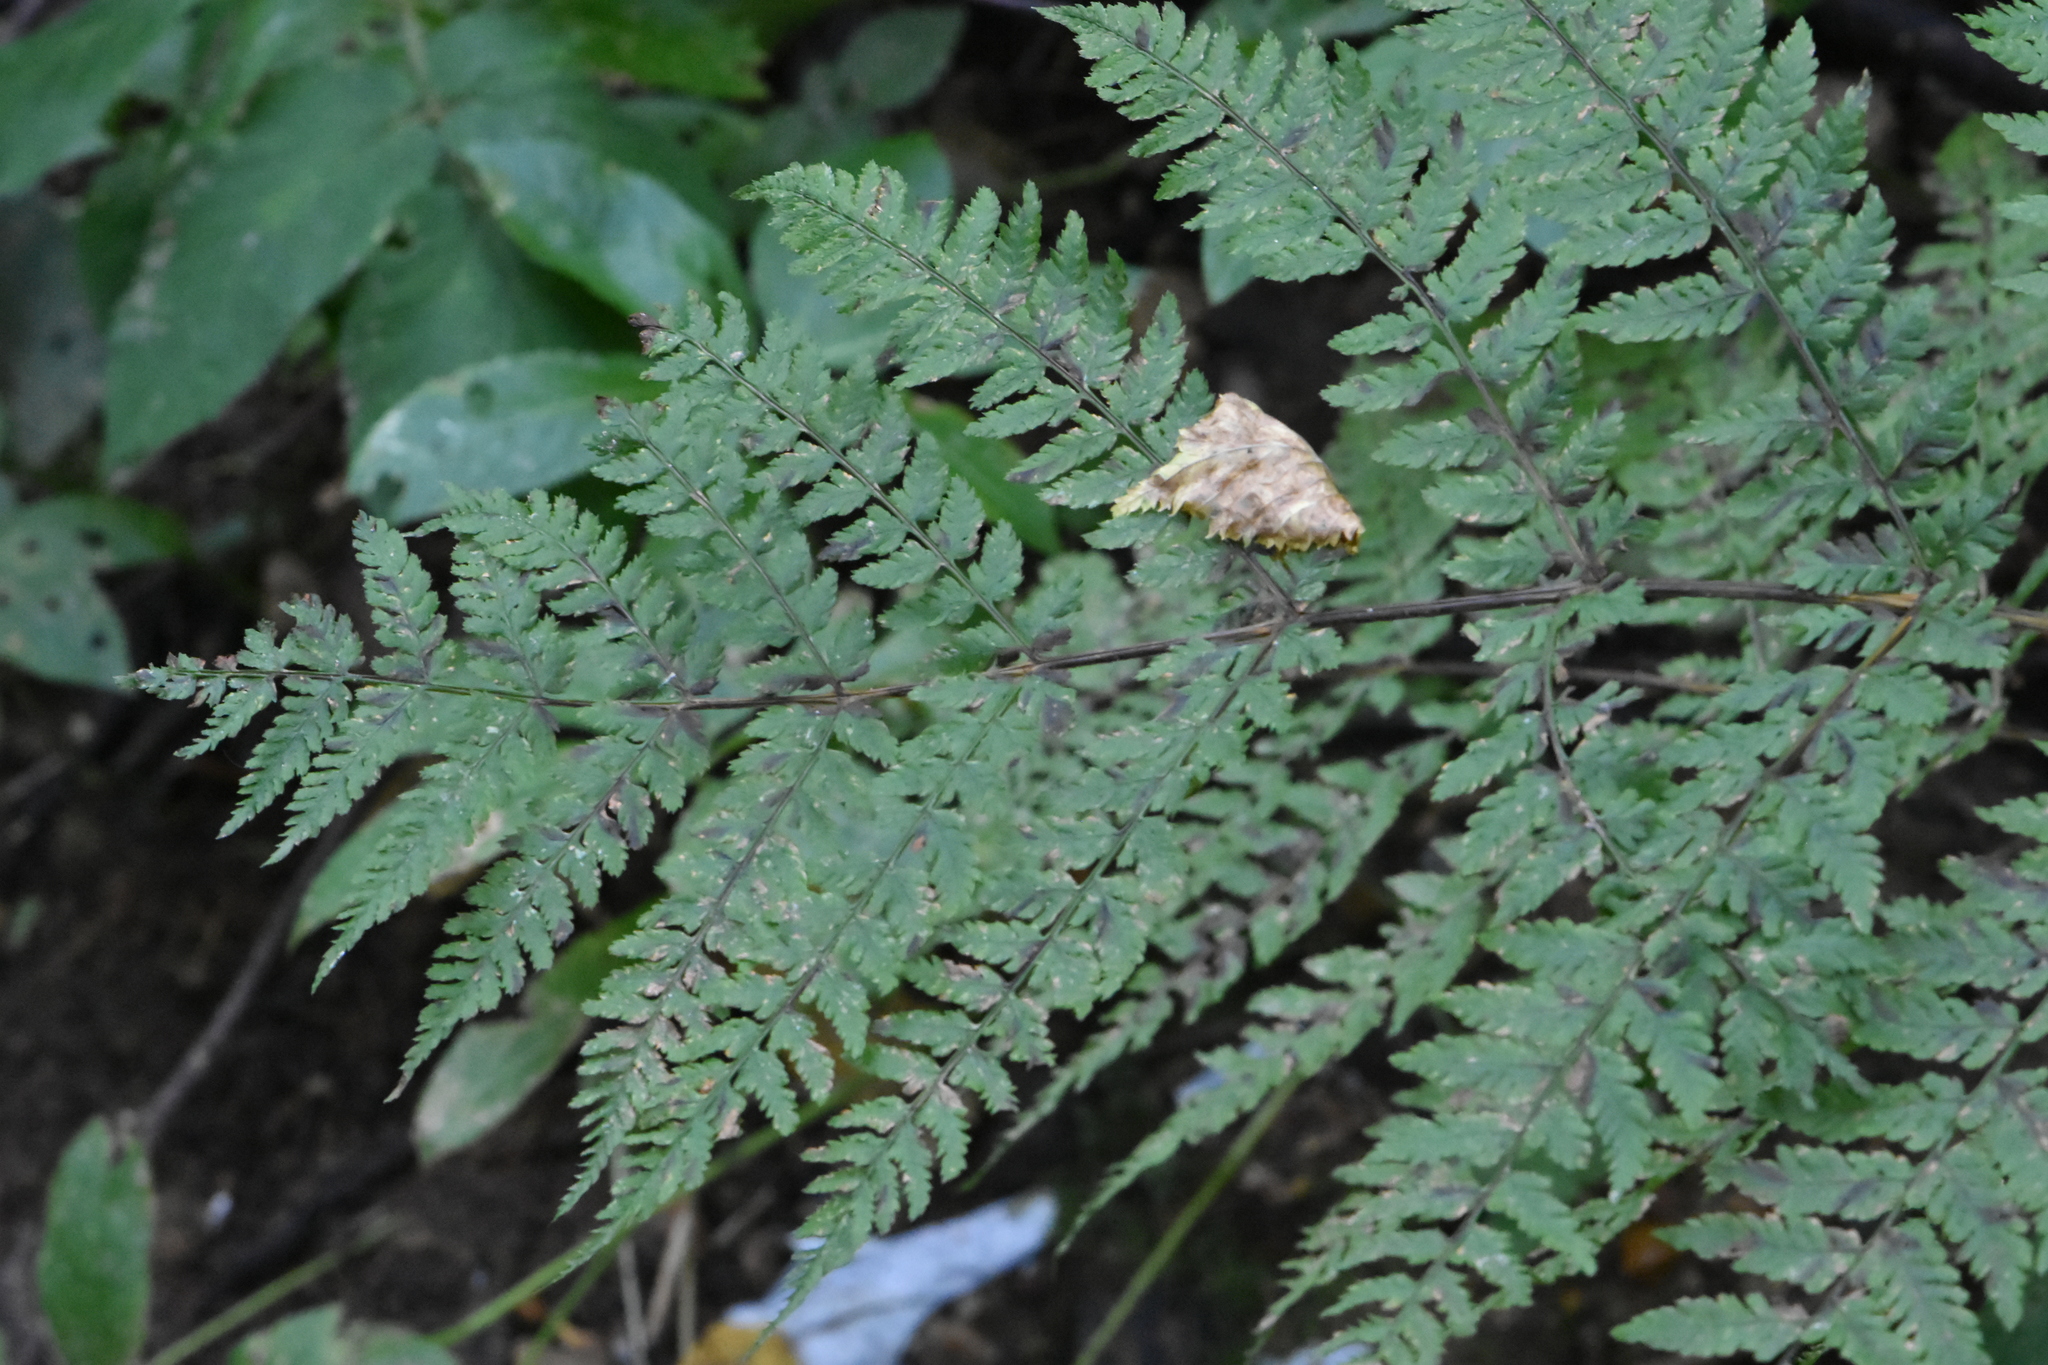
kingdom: Plantae
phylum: Tracheophyta
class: Polypodiopsida
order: Polypodiales
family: Dryopteridaceae
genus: Dryopteris
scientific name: Dryopteris expansa
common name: Northern buckler fern
